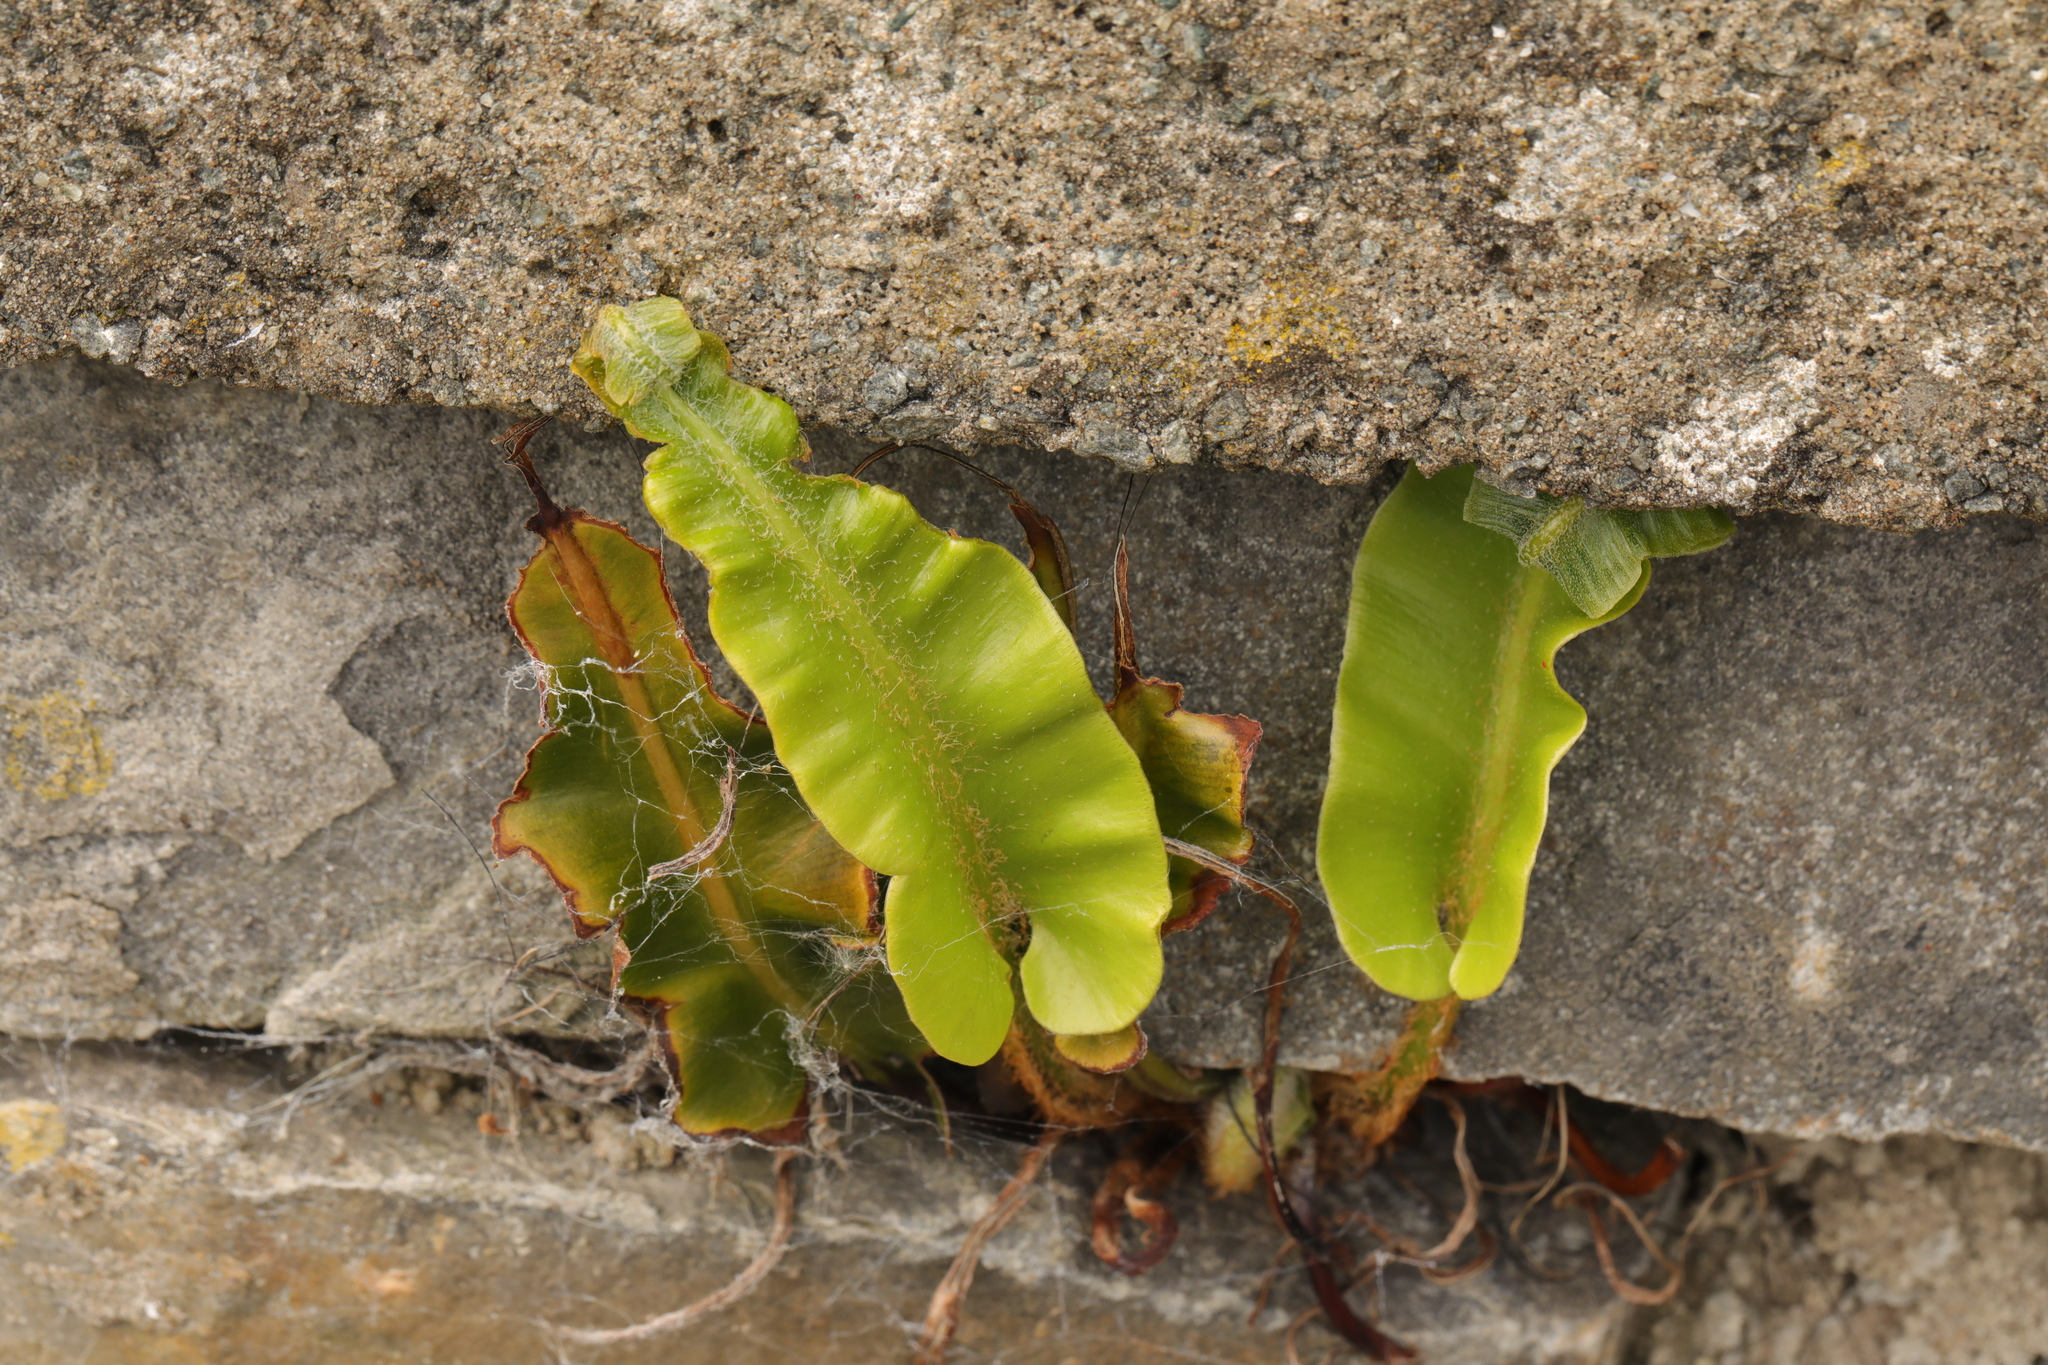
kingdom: Plantae
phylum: Tracheophyta
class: Polypodiopsida
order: Polypodiales
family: Aspleniaceae
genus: Asplenium
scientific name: Asplenium scolopendrium
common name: Hart's-tongue fern
